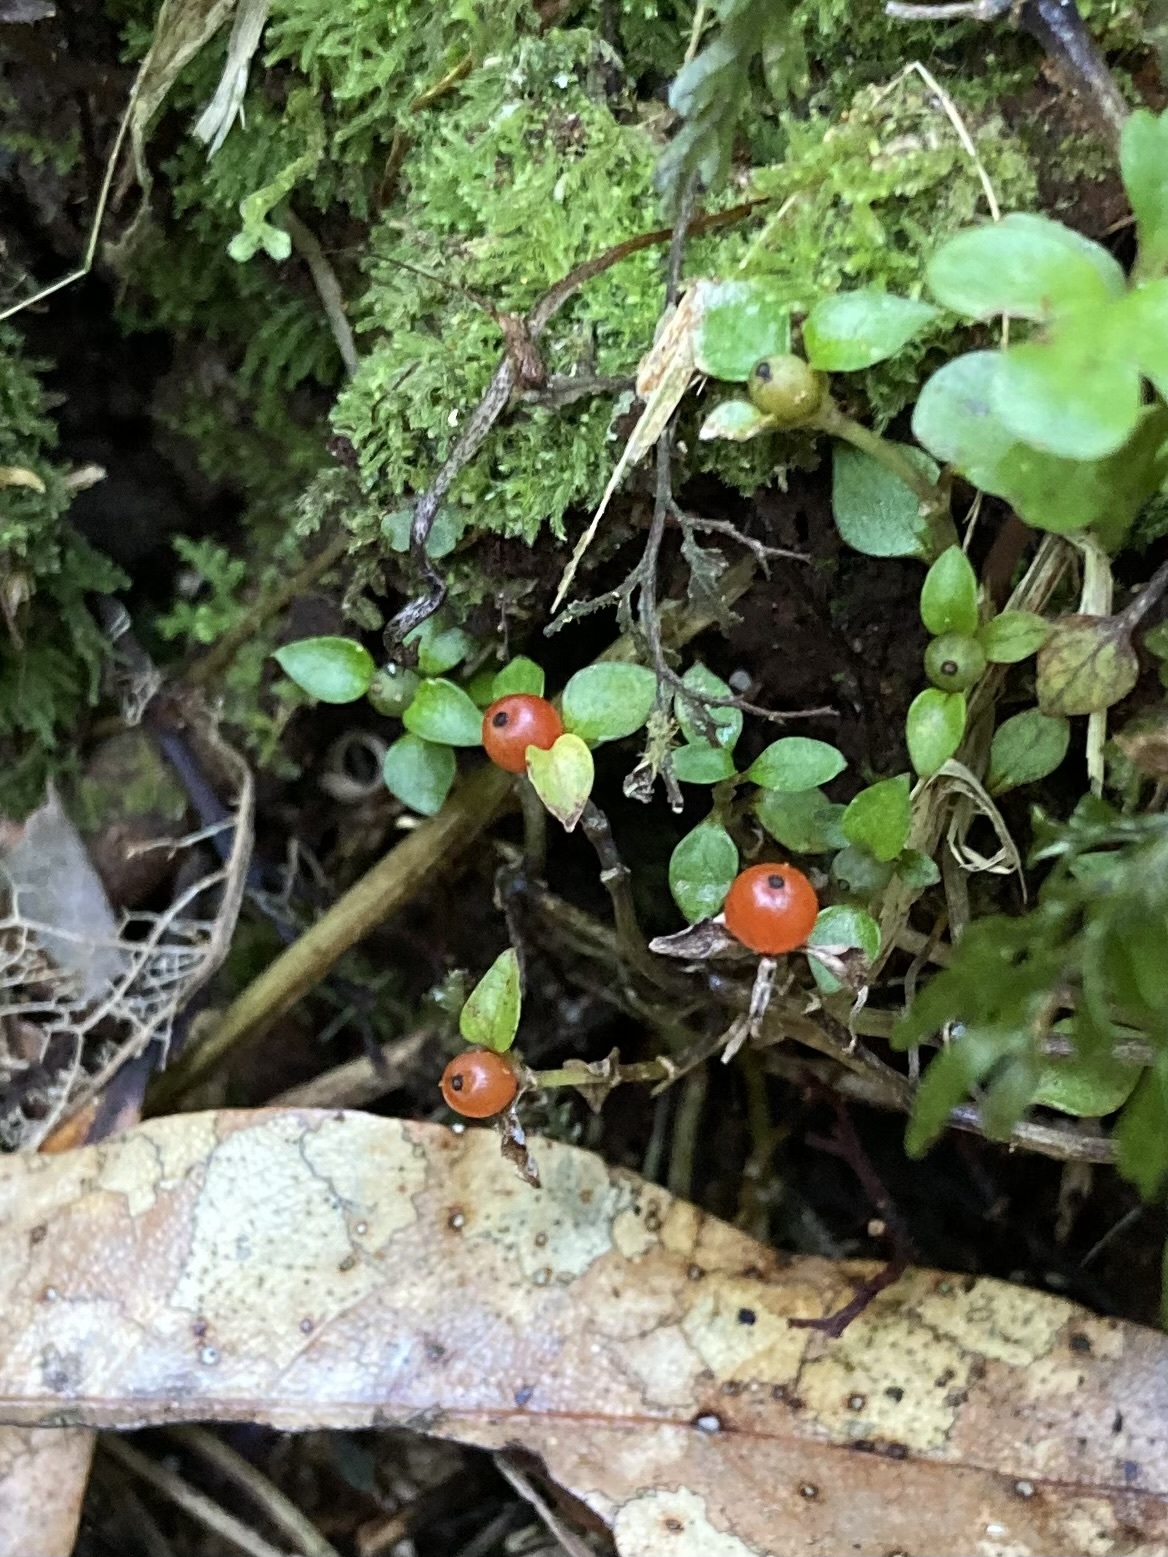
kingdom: Plantae
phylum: Tracheophyta
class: Magnoliopsida
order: Gentianales
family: Rubiaceae
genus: Nertera
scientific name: Nertera granadensis
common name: Beadplant
